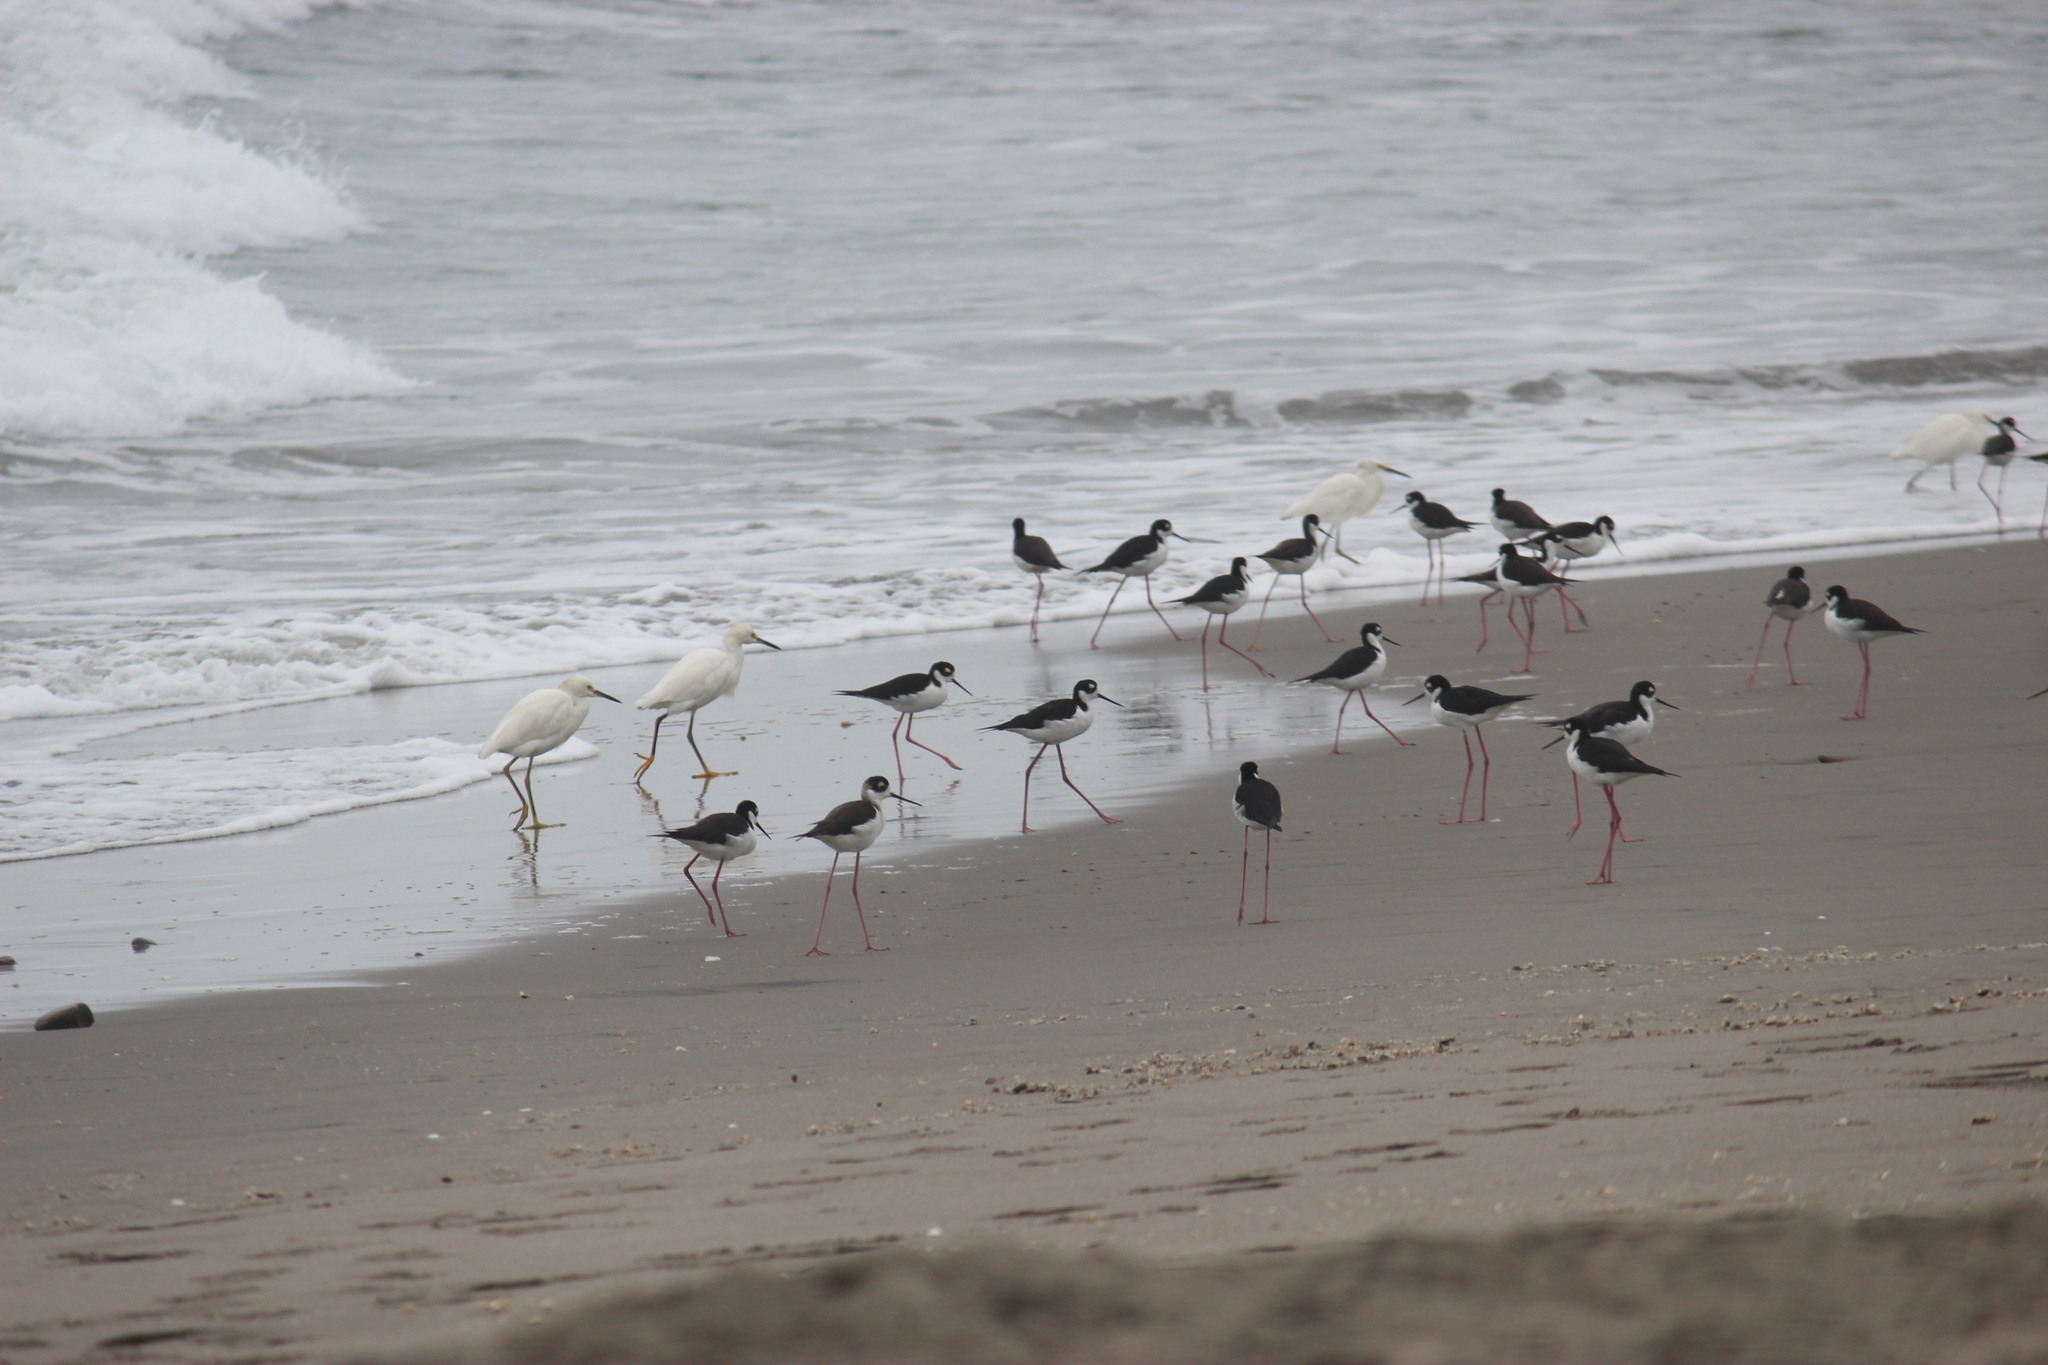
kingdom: Animalia
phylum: Chordata
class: Aves
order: Charadriiformes
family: Recurvirostridae
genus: Himantopus
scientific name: Himantopus mexicanus
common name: Black-necked stilt
